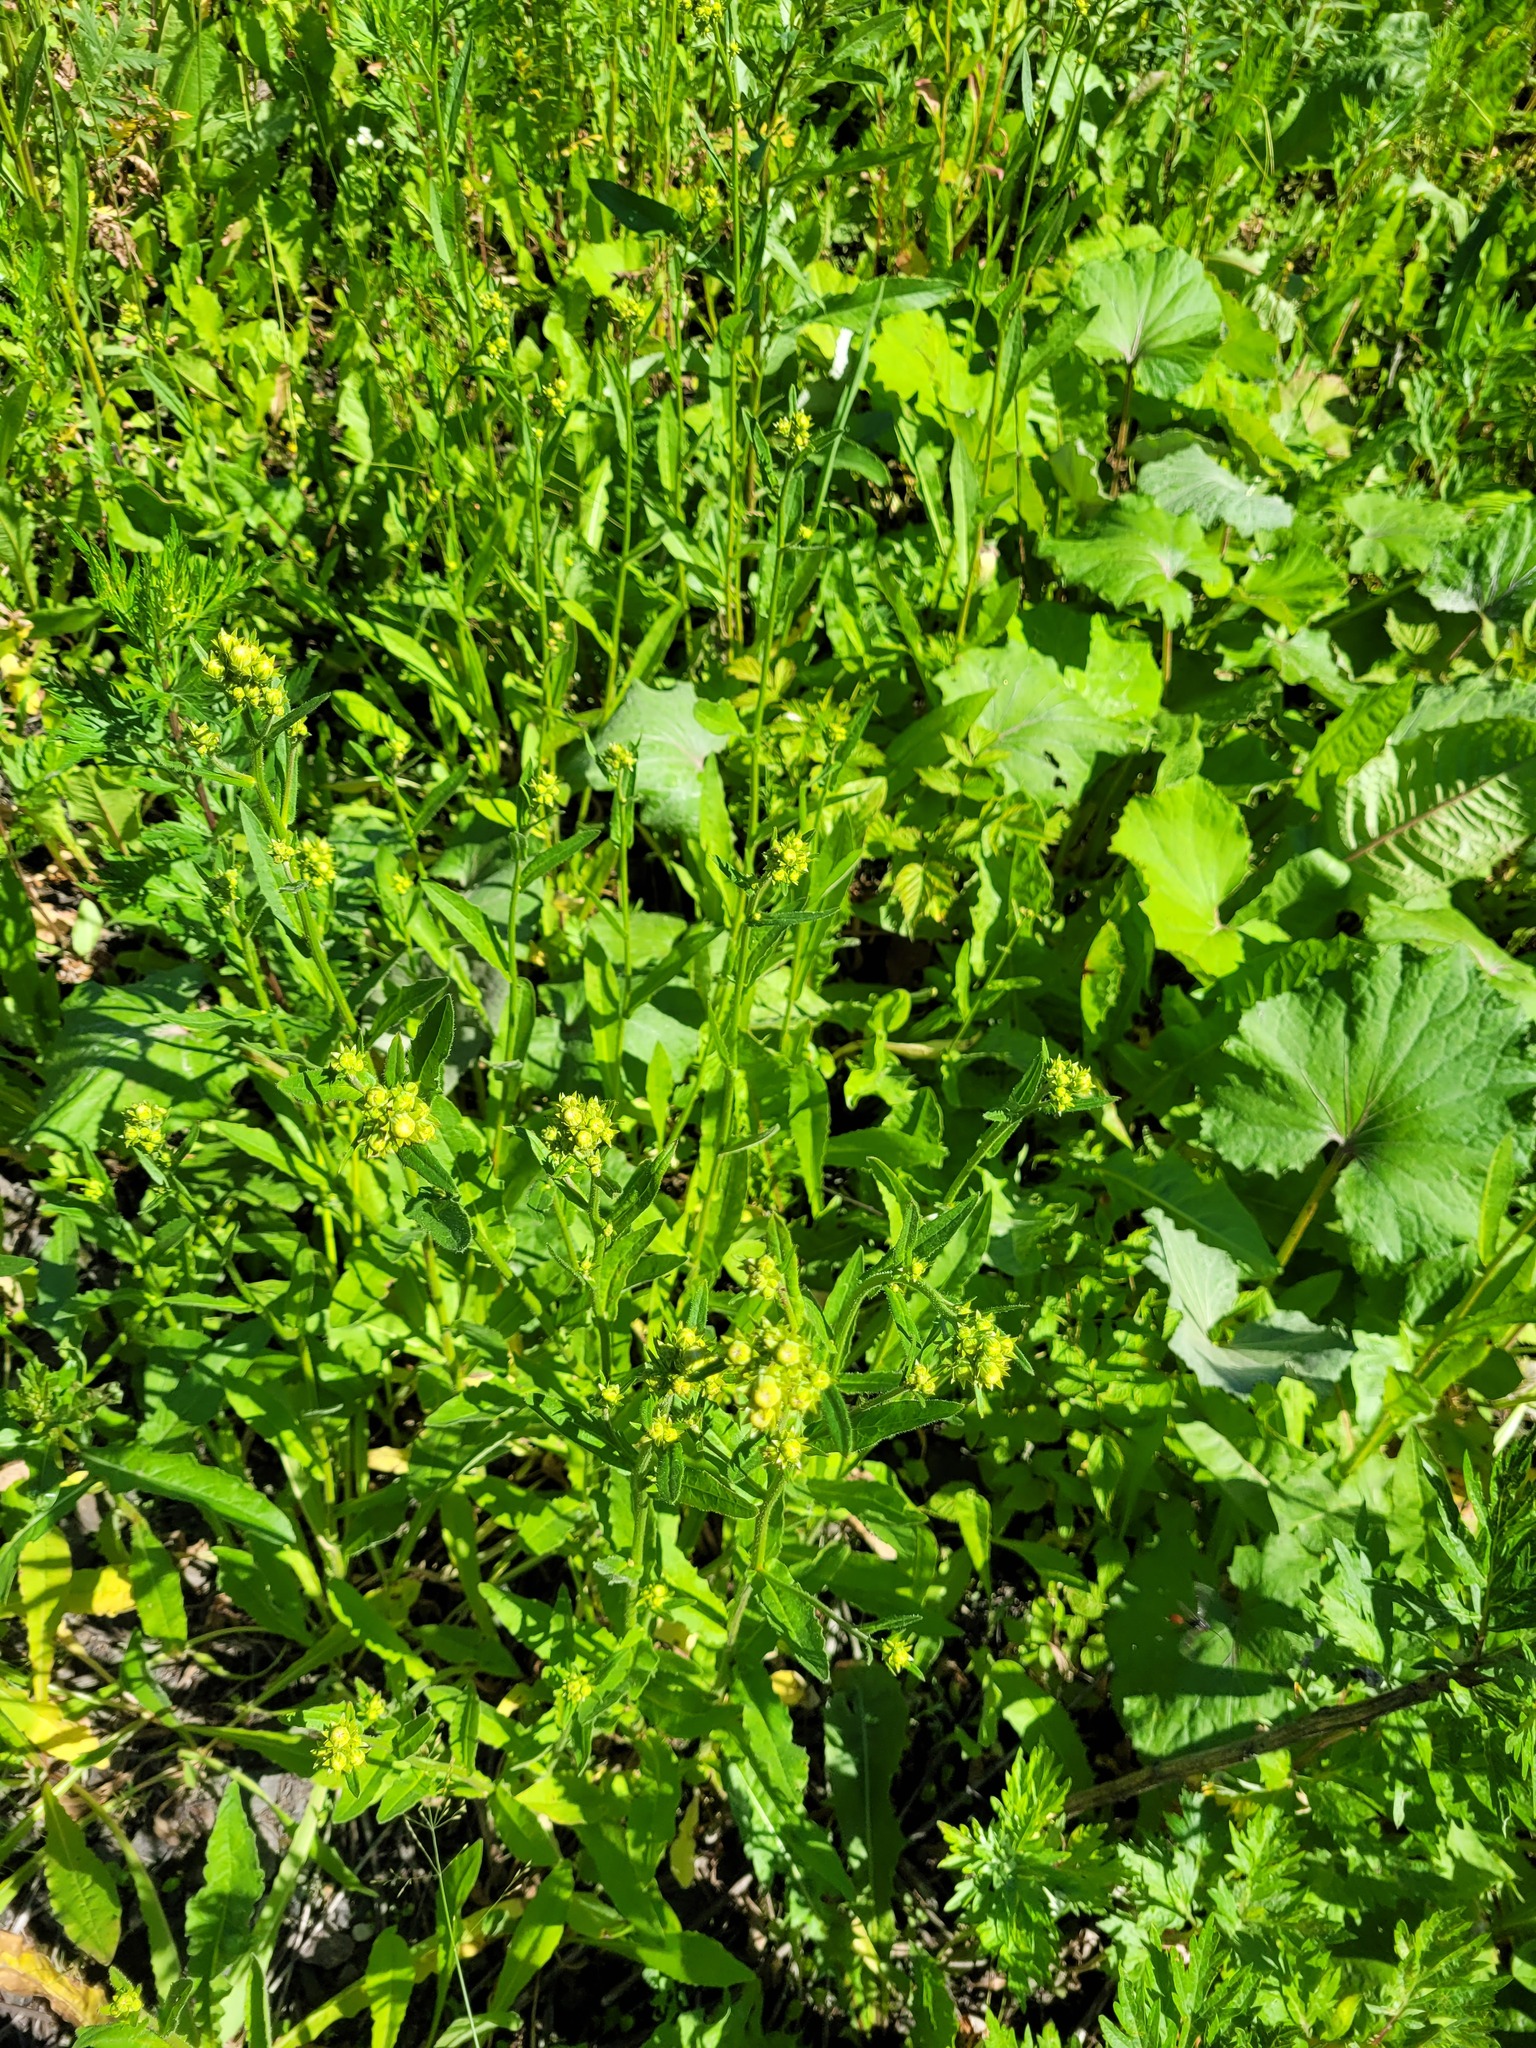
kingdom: Plantae
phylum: Tracheophyta
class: Magnoliopsida
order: Asterales
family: Asteraceae
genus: Picris
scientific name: Picris hieracioides
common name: Hawkweed oxtongue
